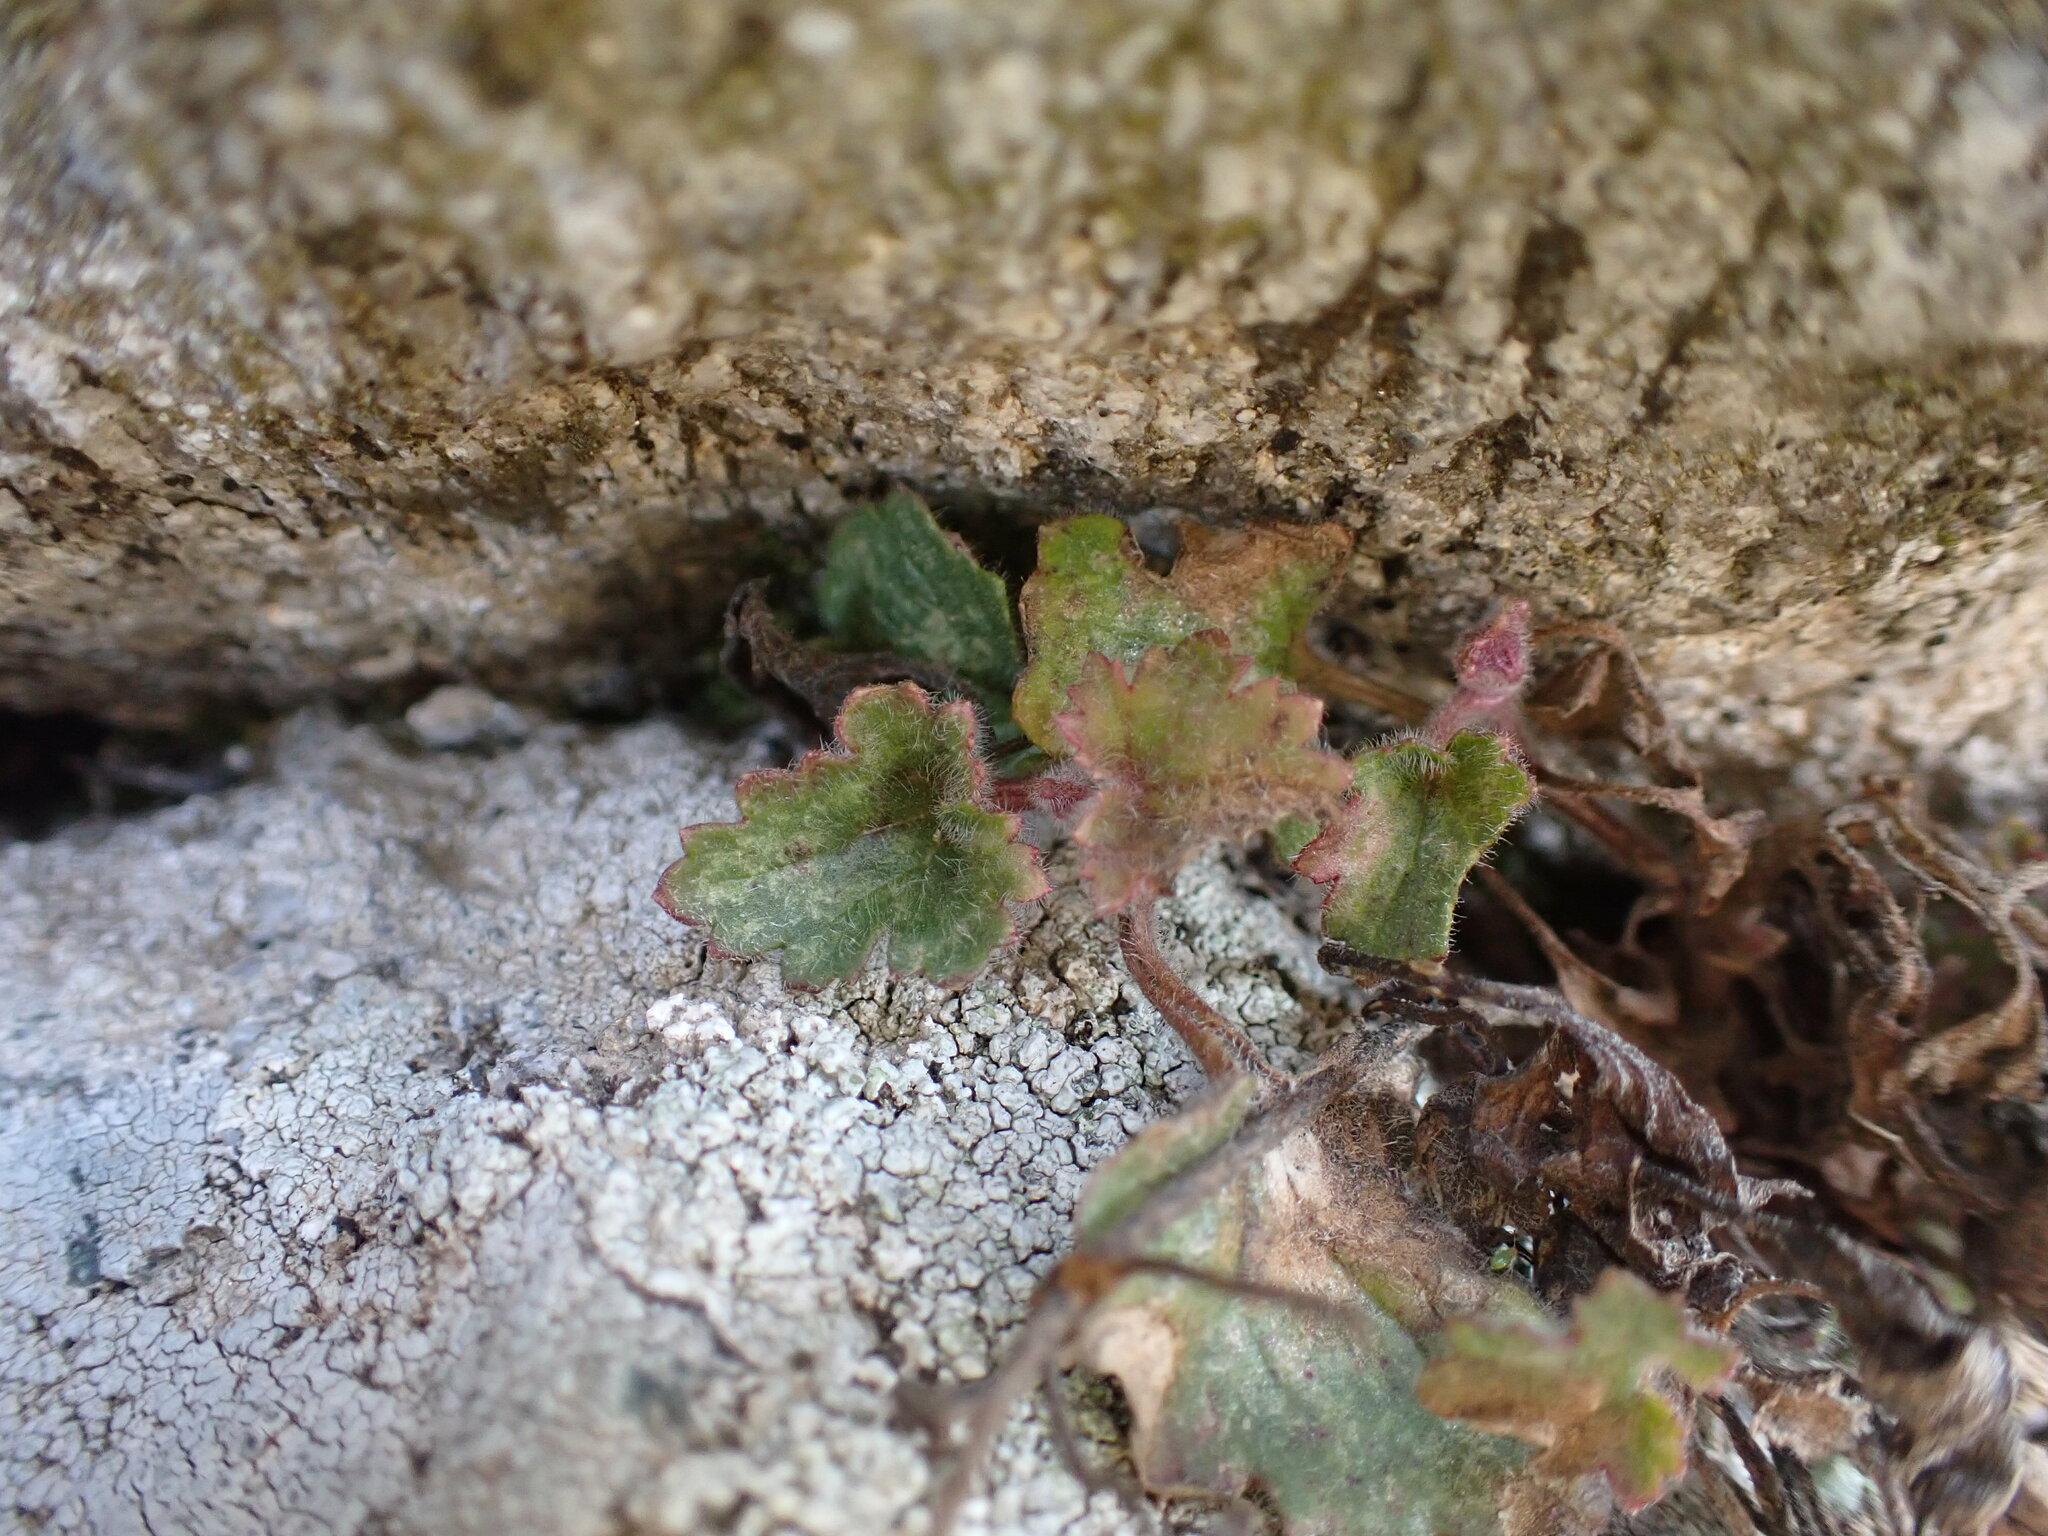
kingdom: Plantae
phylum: Tracheophyta
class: Magnoliopsida
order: Lamiales
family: Plantaginaceae
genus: Asarina
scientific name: Asarina procumbens
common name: Trailing snapdragon
